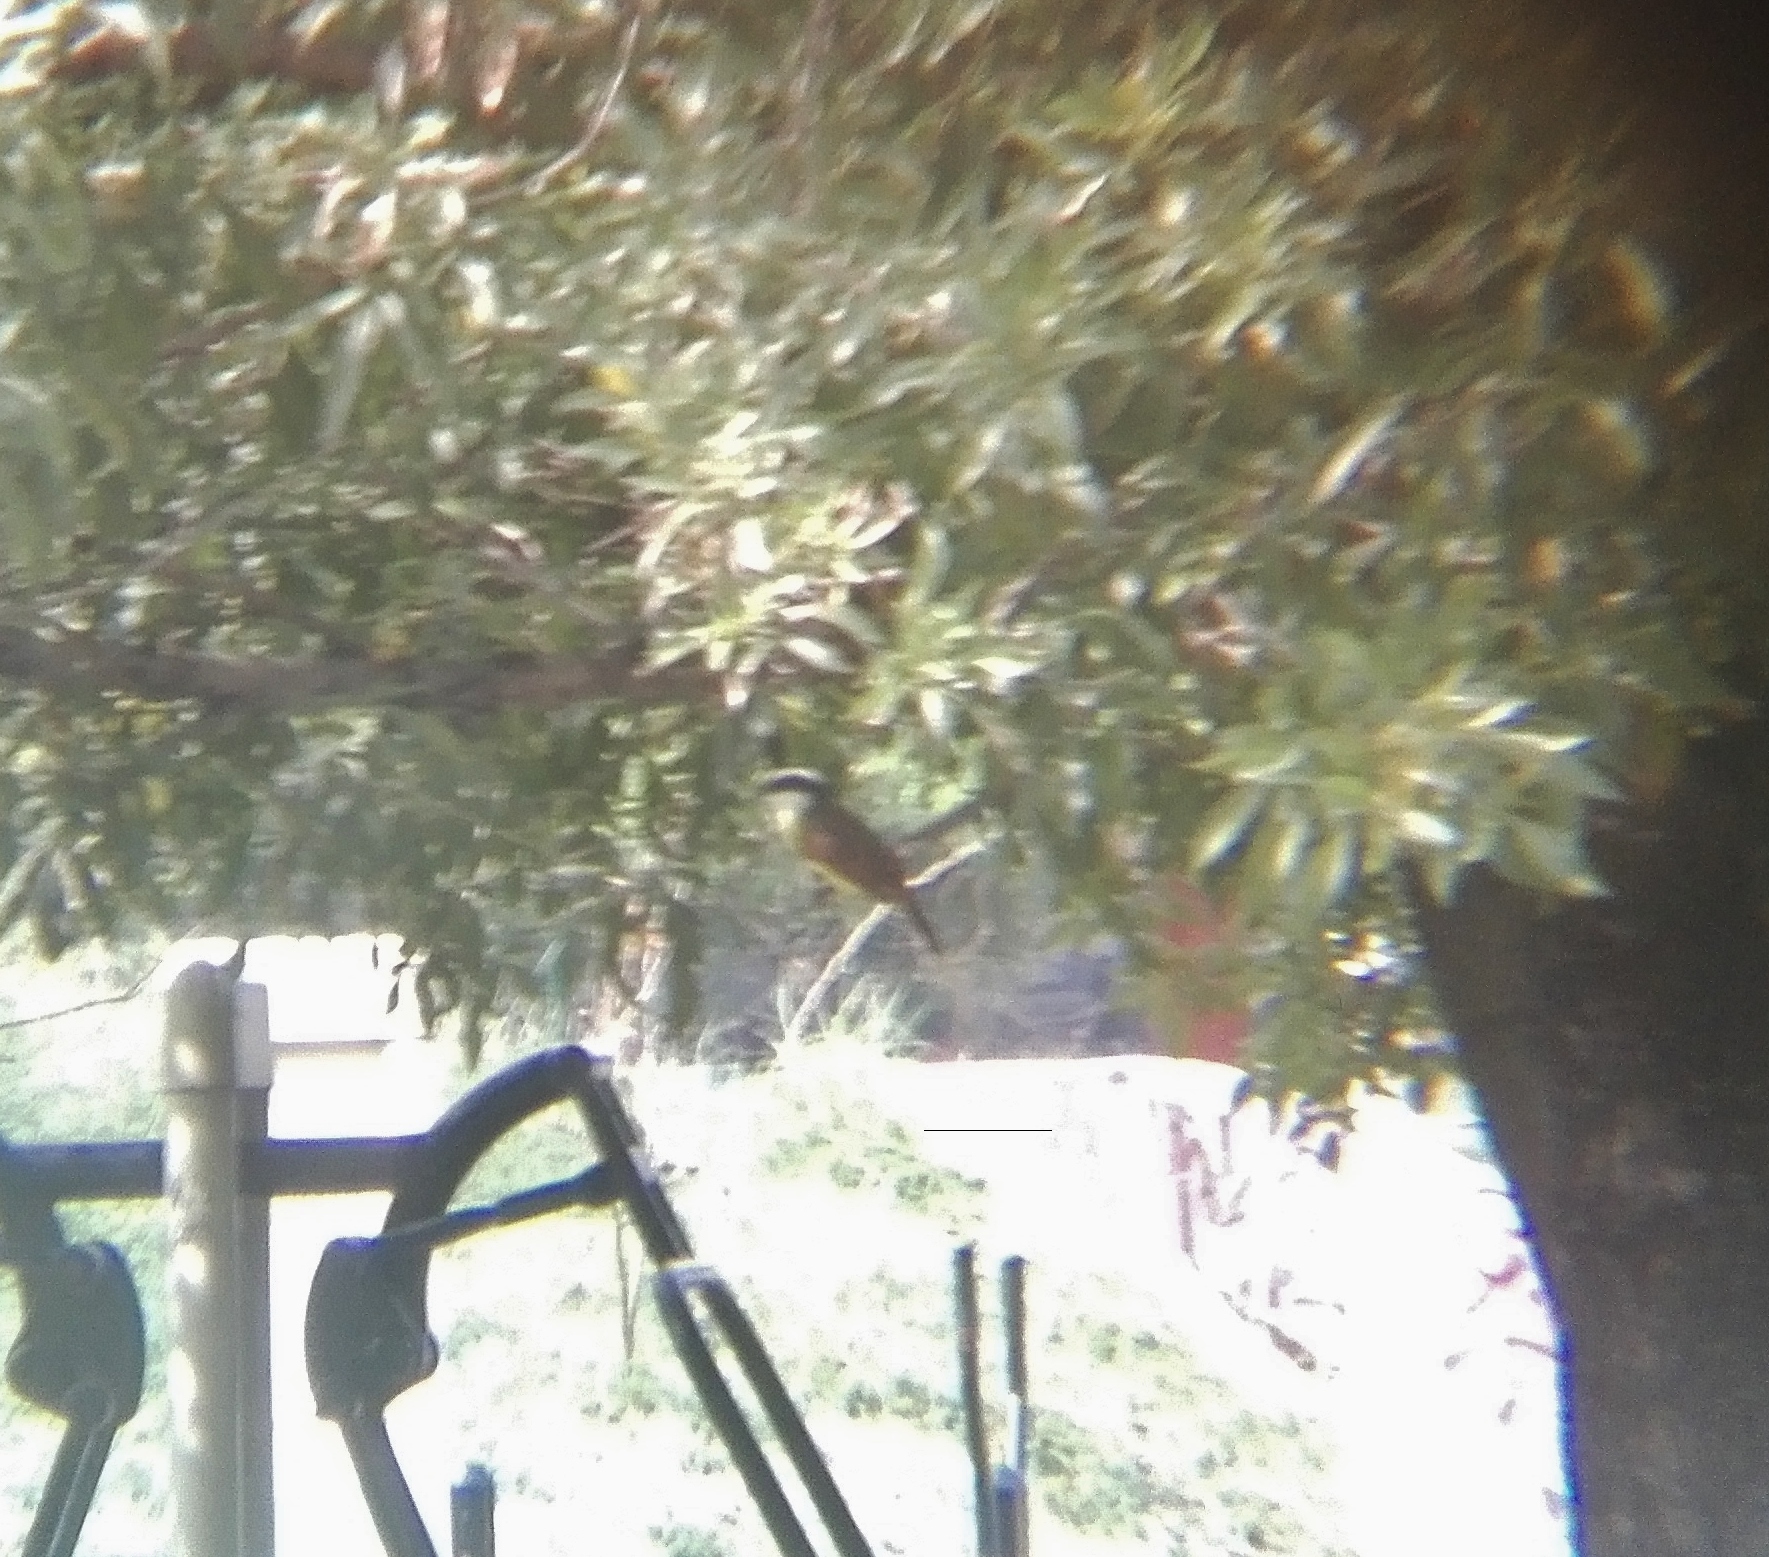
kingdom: Animalia
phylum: Chordata
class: Aves
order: Passeriformes
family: Tyrannidae
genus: Pitangus
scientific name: Pitangus sulphuratus
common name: Great kiskadee
